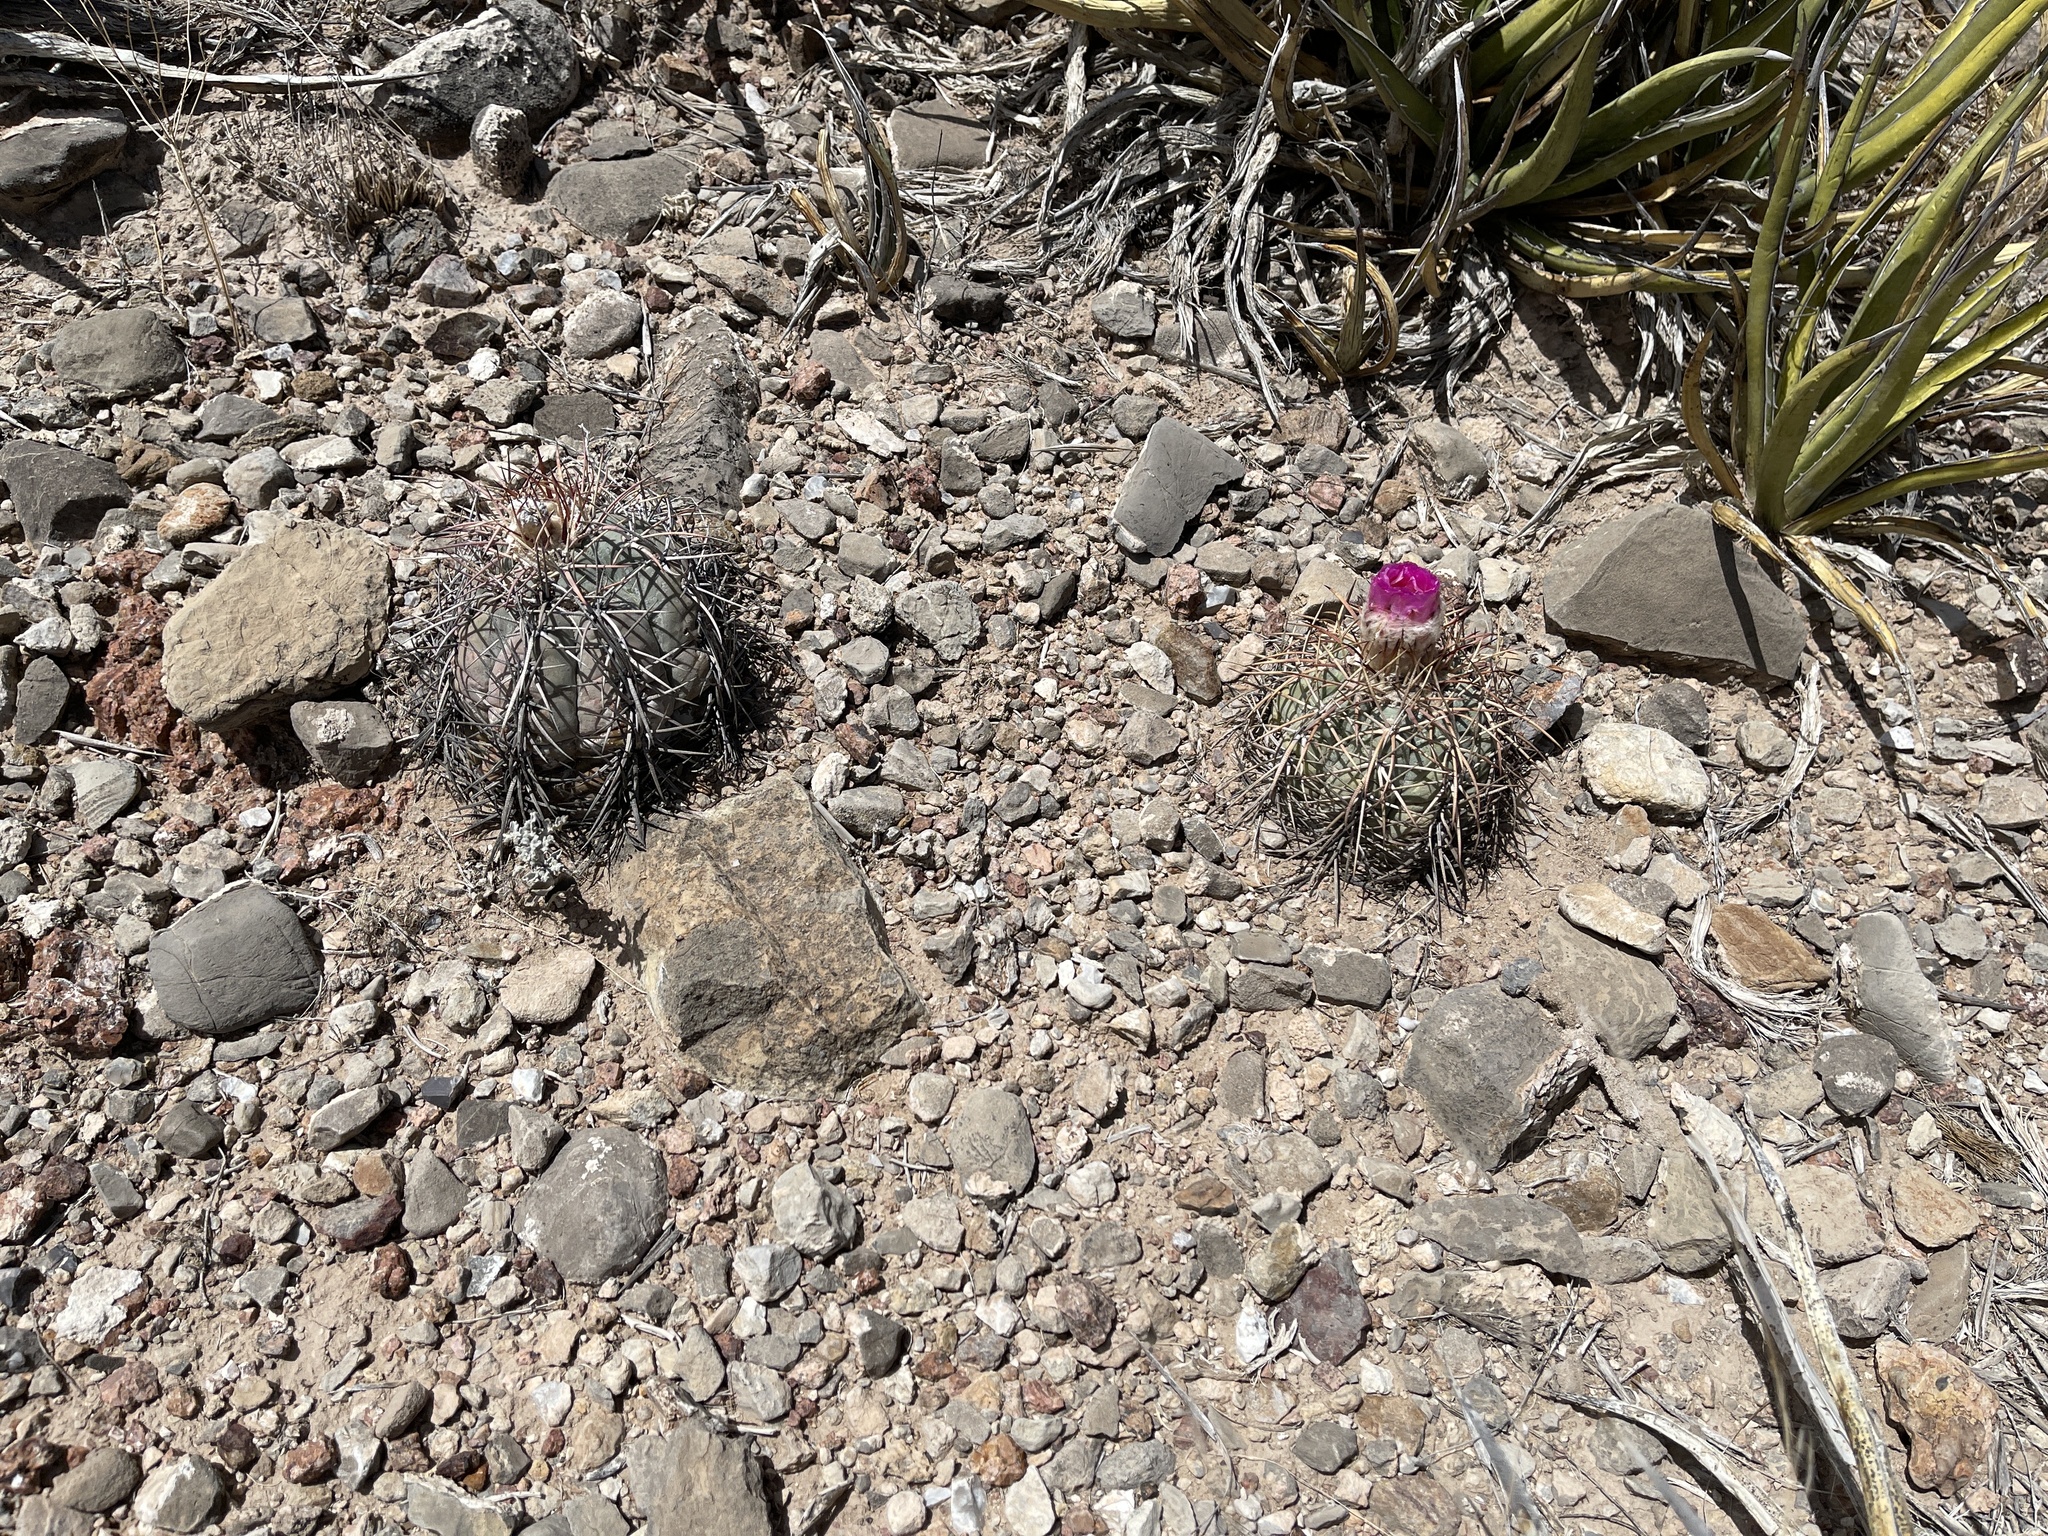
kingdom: Plantae
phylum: Tracheophyta
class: Magnoliopsida
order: Caryophyllales
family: Cactaceae
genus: Echinocactus
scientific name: Echinocactus horizonthalonius
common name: Devilshead
